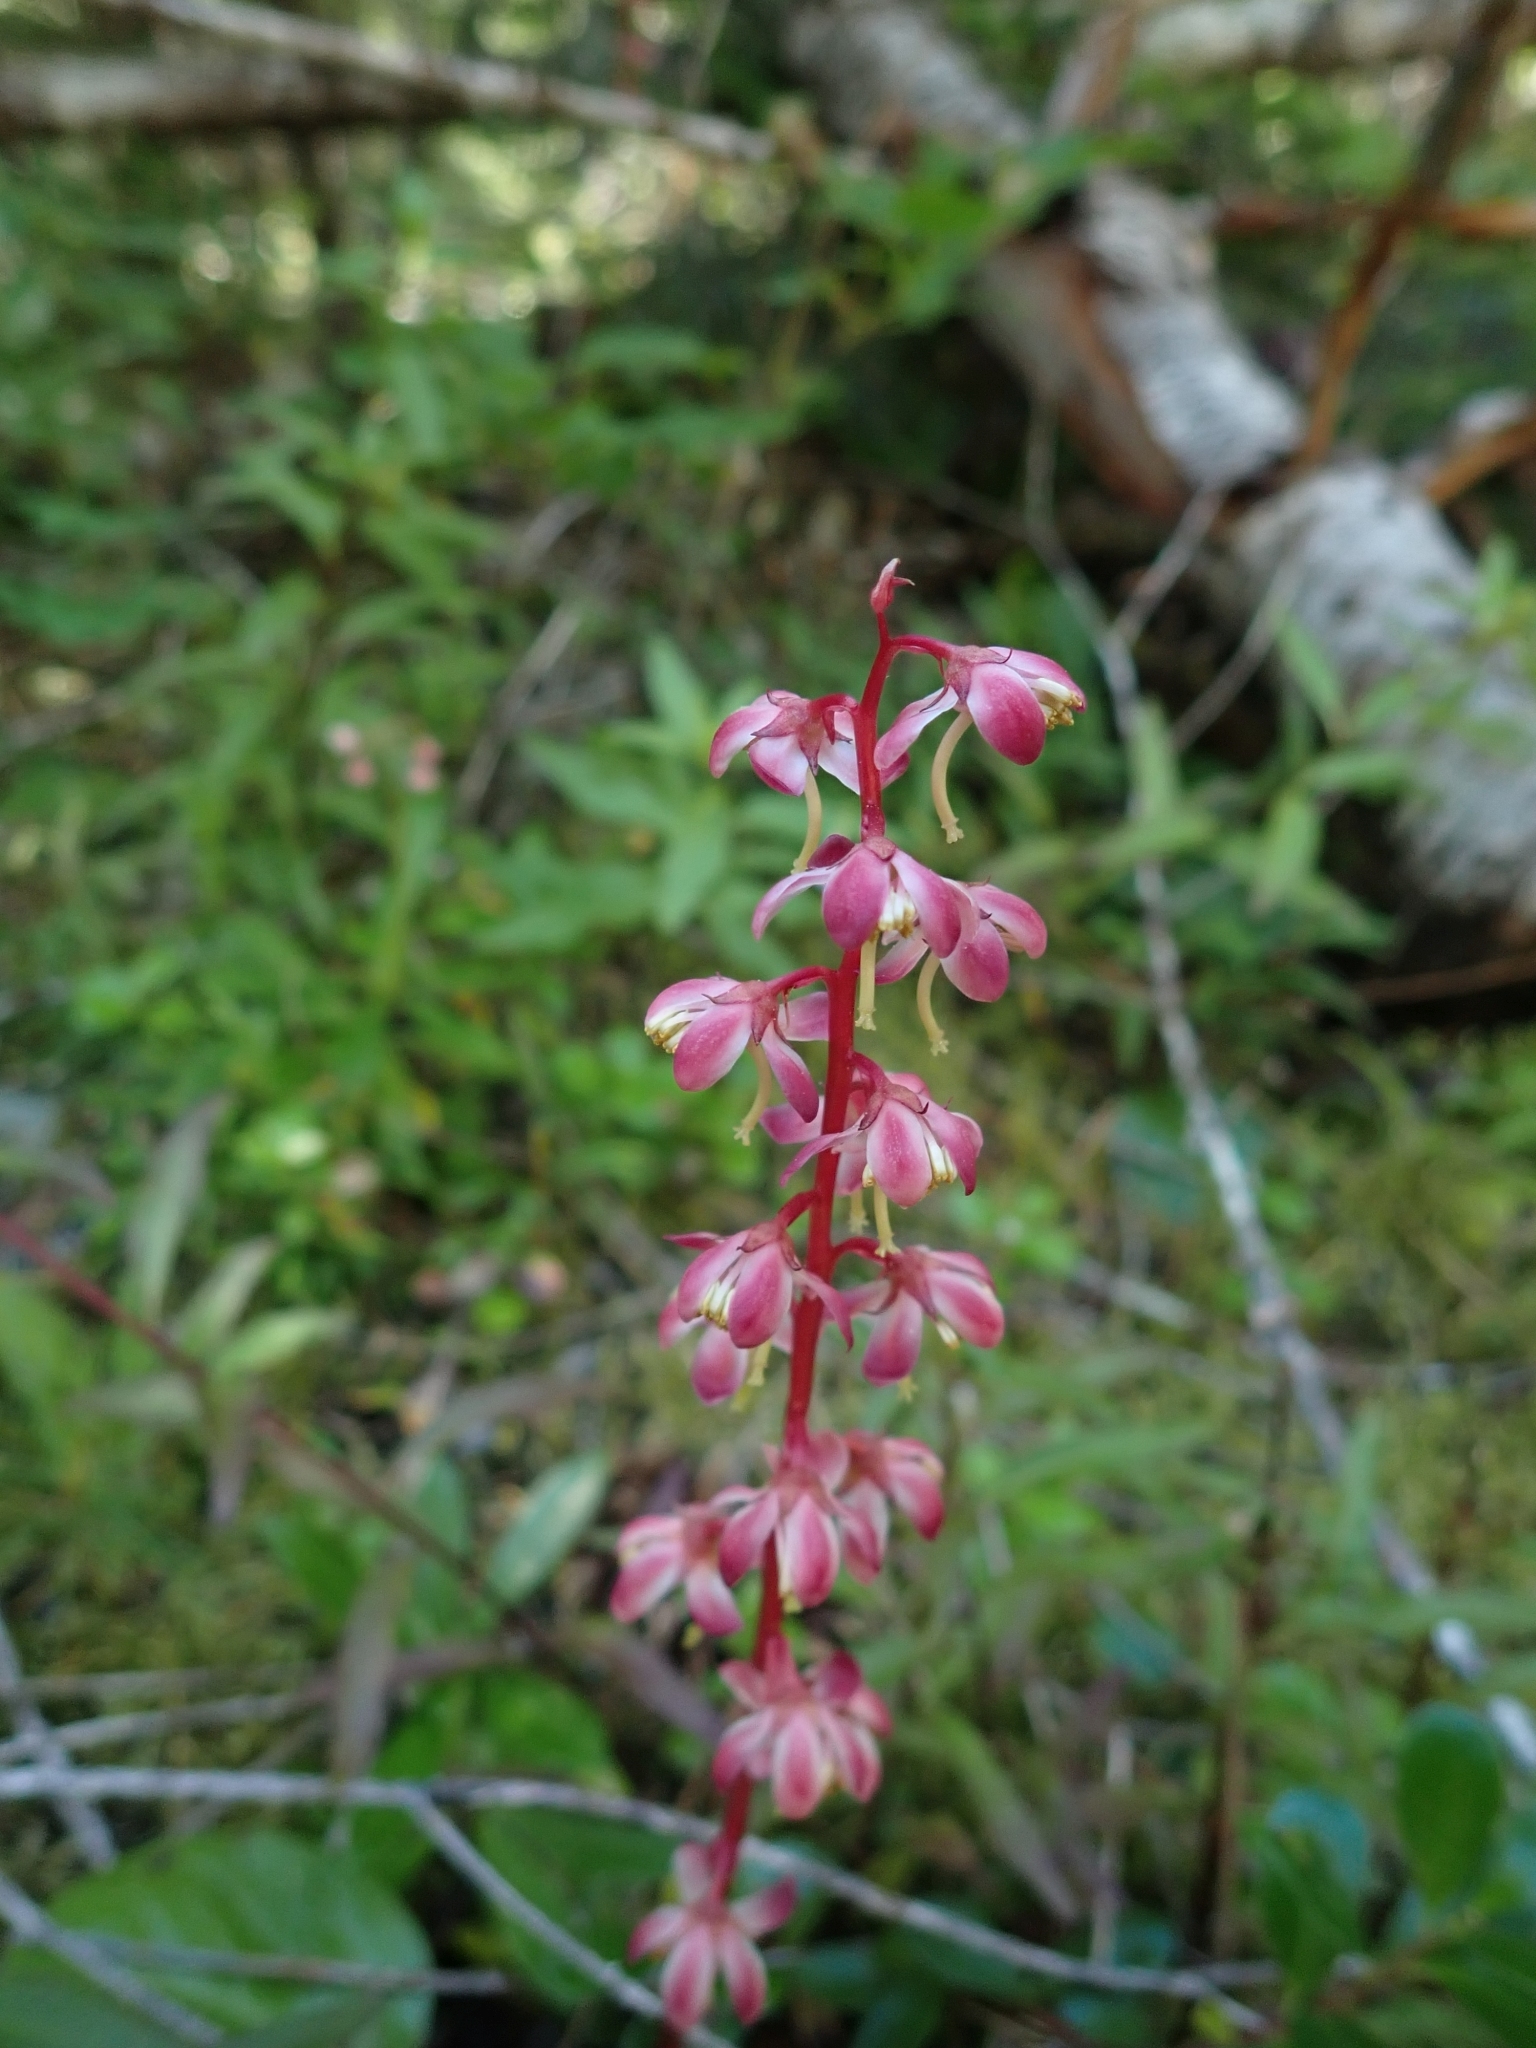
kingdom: Plantae
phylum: Tracheophyta
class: Magnoliopsida
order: Ericales
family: Ericaceae
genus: Pyrola
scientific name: Pyrola asarifolia
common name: Bog wintergreen
